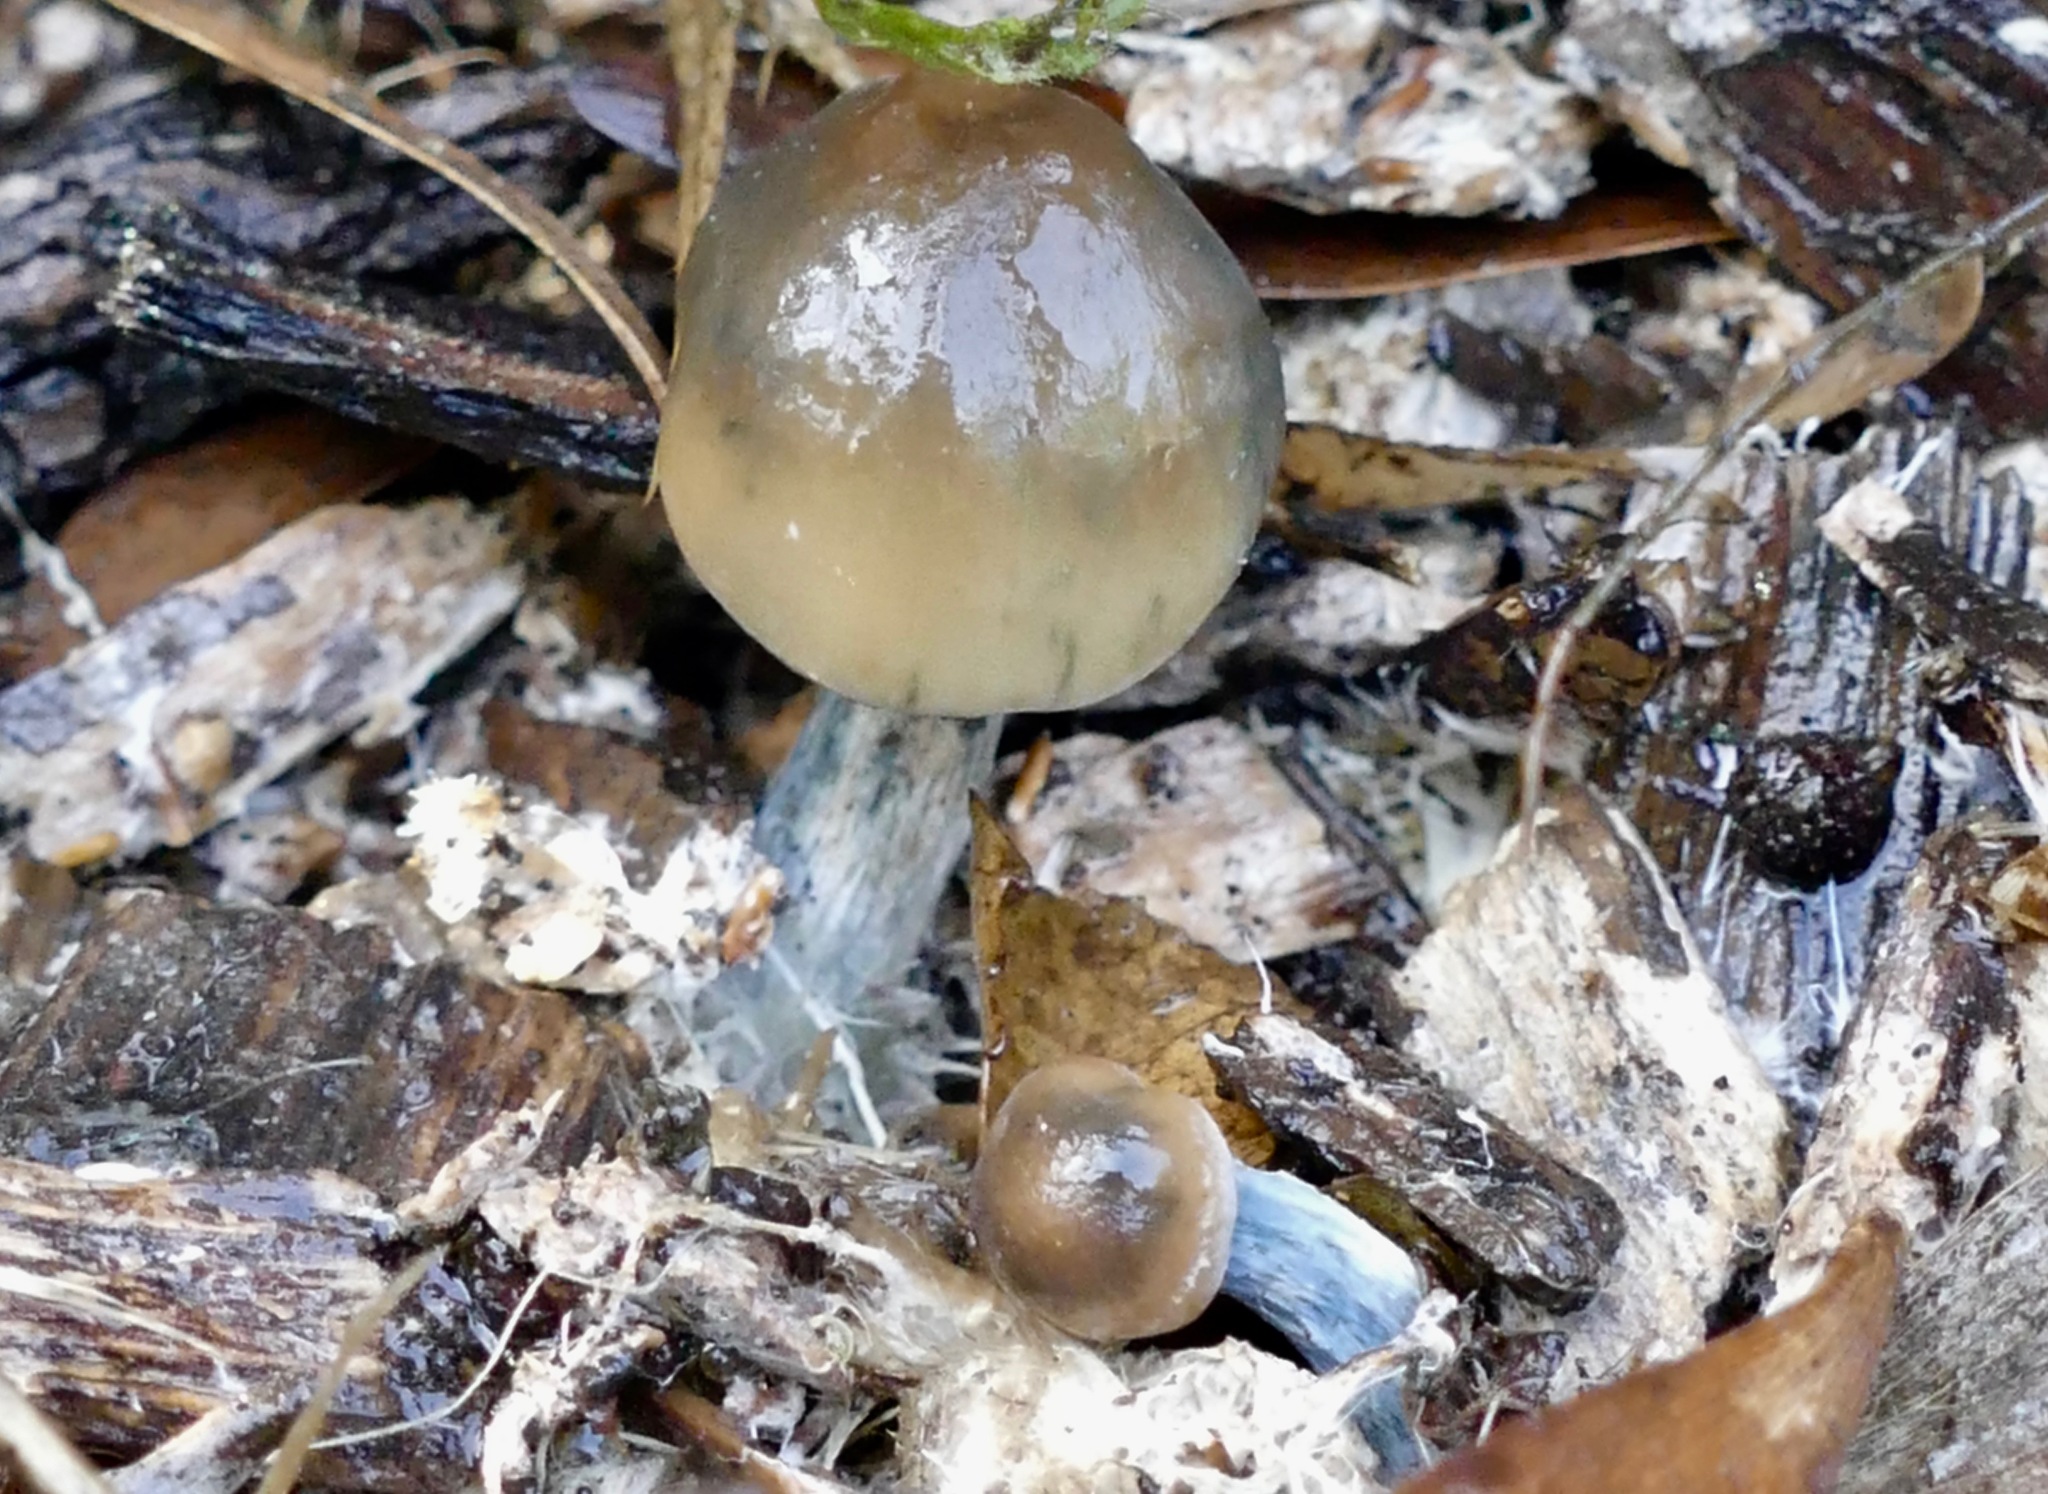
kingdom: Fungi
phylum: Basidiomycota
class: Agaricomycetes
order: Agaricales
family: Hymenogastraceae
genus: Psilocybe
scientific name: Psilocybe allenii
